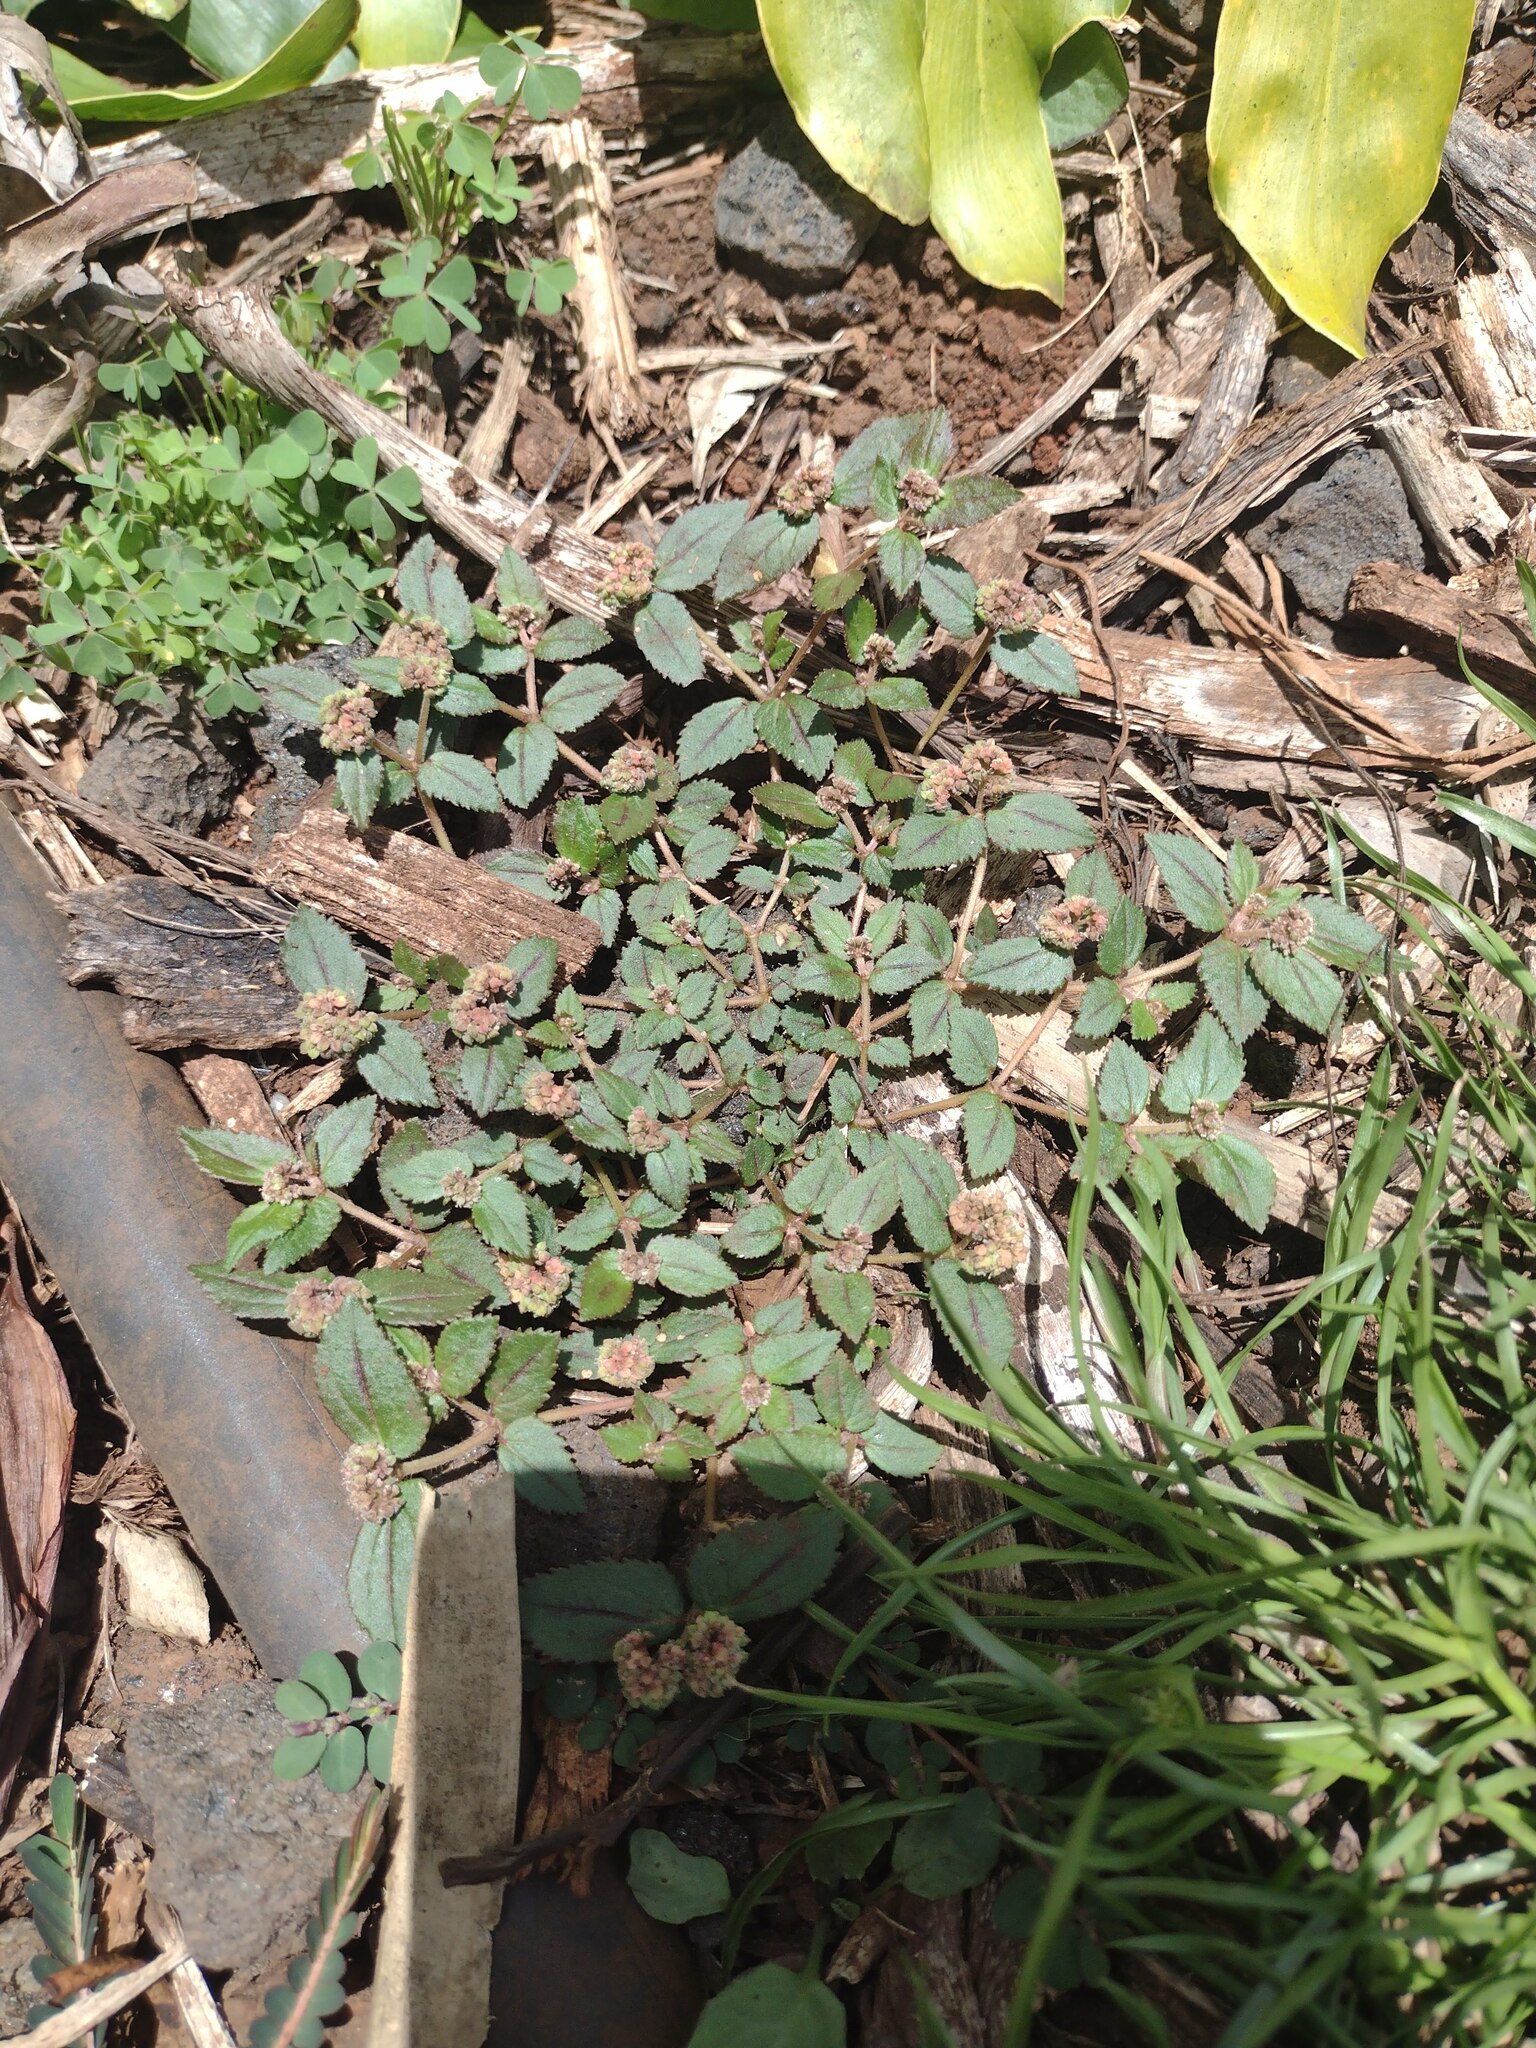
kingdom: Plantae
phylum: Tracheophyta
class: Magnoliopsida
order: Malpighiales
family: Euphorbiaceae
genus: Euphorbia
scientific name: Euphorbia ophthalmica
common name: Florida hammock sandmat
